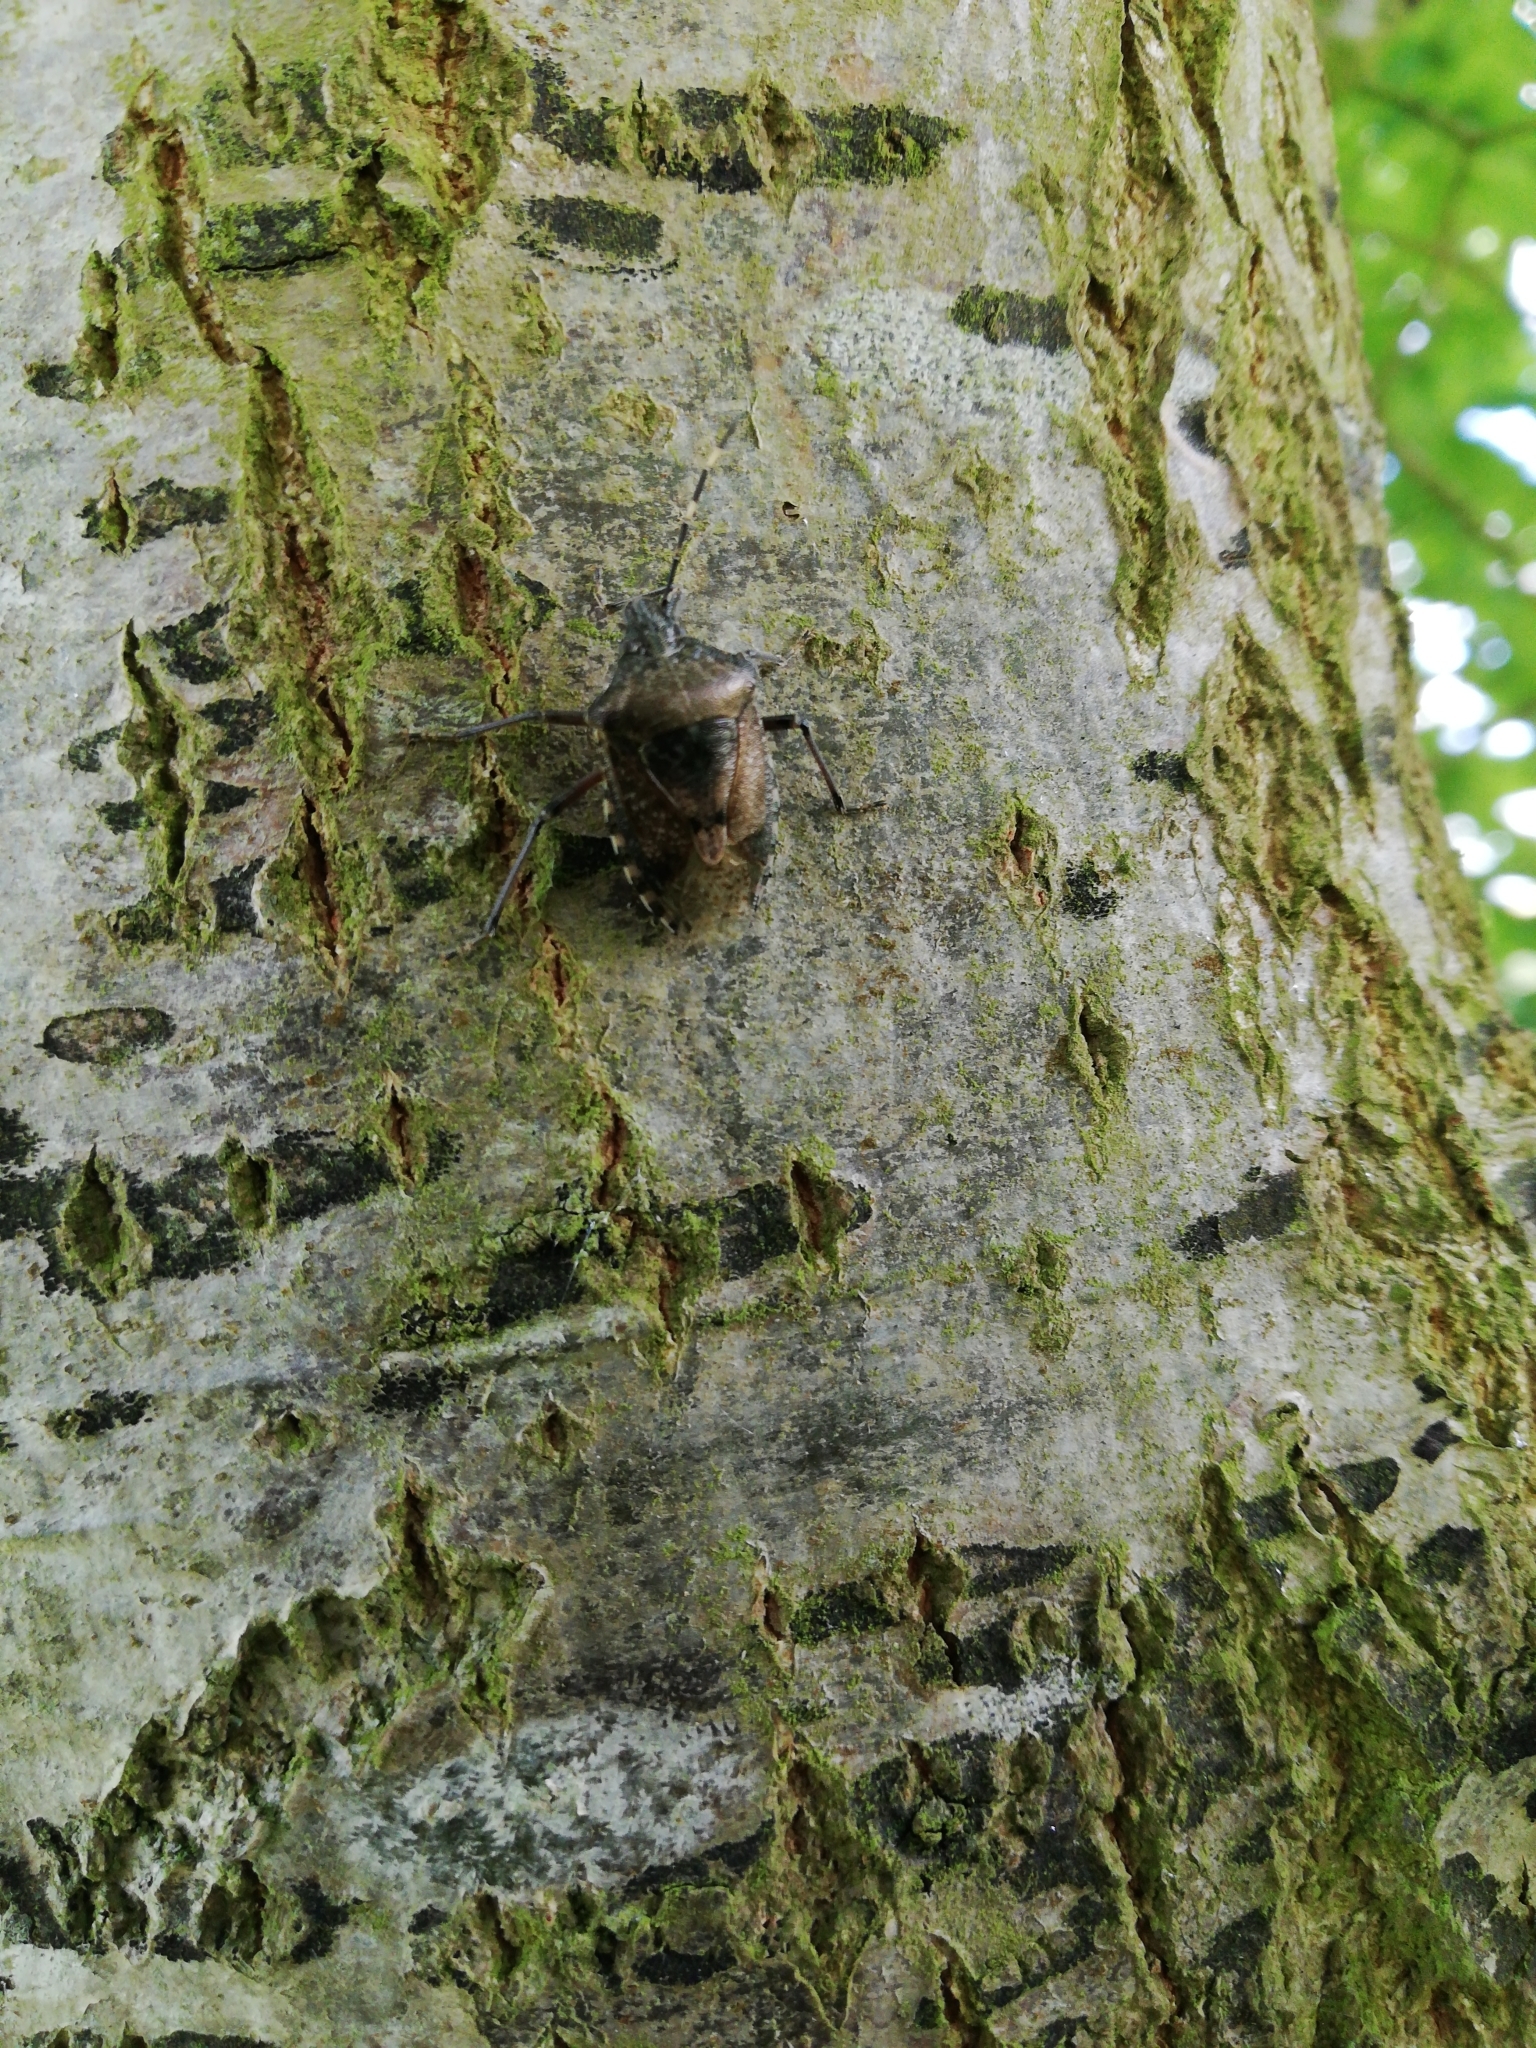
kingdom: Animalia
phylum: Arthropoda
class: Insecta
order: Hemiptera
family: Pentatomidae
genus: Rhaphigaster
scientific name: Rhaphigaster nebulosa
